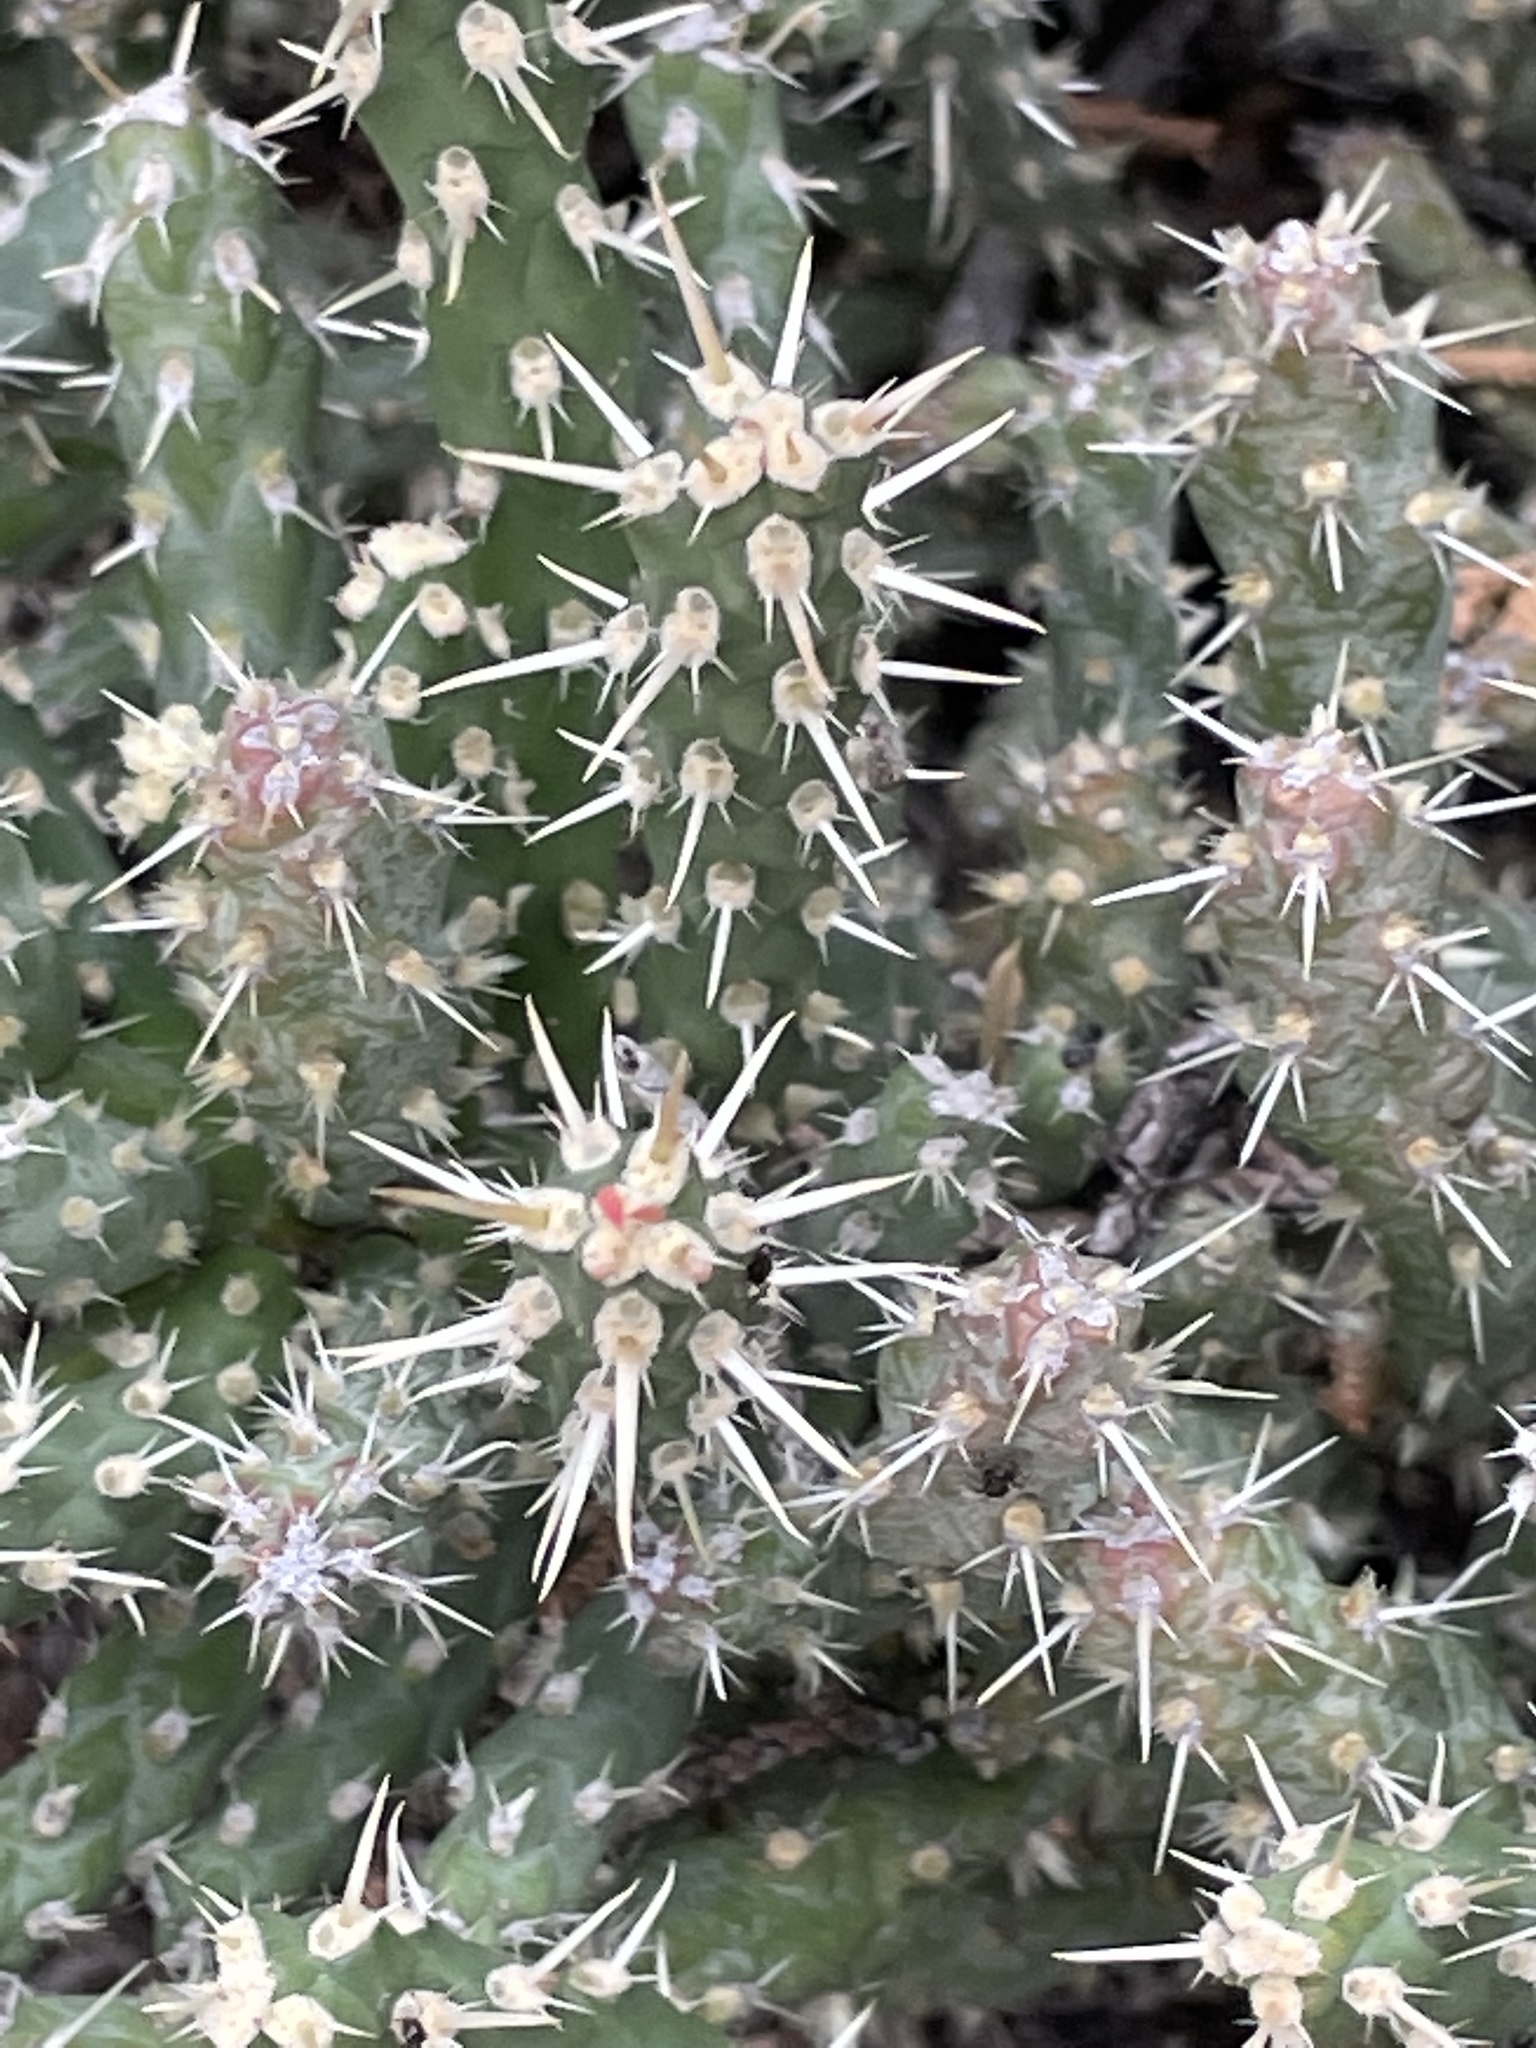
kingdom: Plantae
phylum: Tracheophyta
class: Magnoliopsida
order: Caryophyllales
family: Cactaceae
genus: Cylindropuntia
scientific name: Cylindropuntia whipplei
